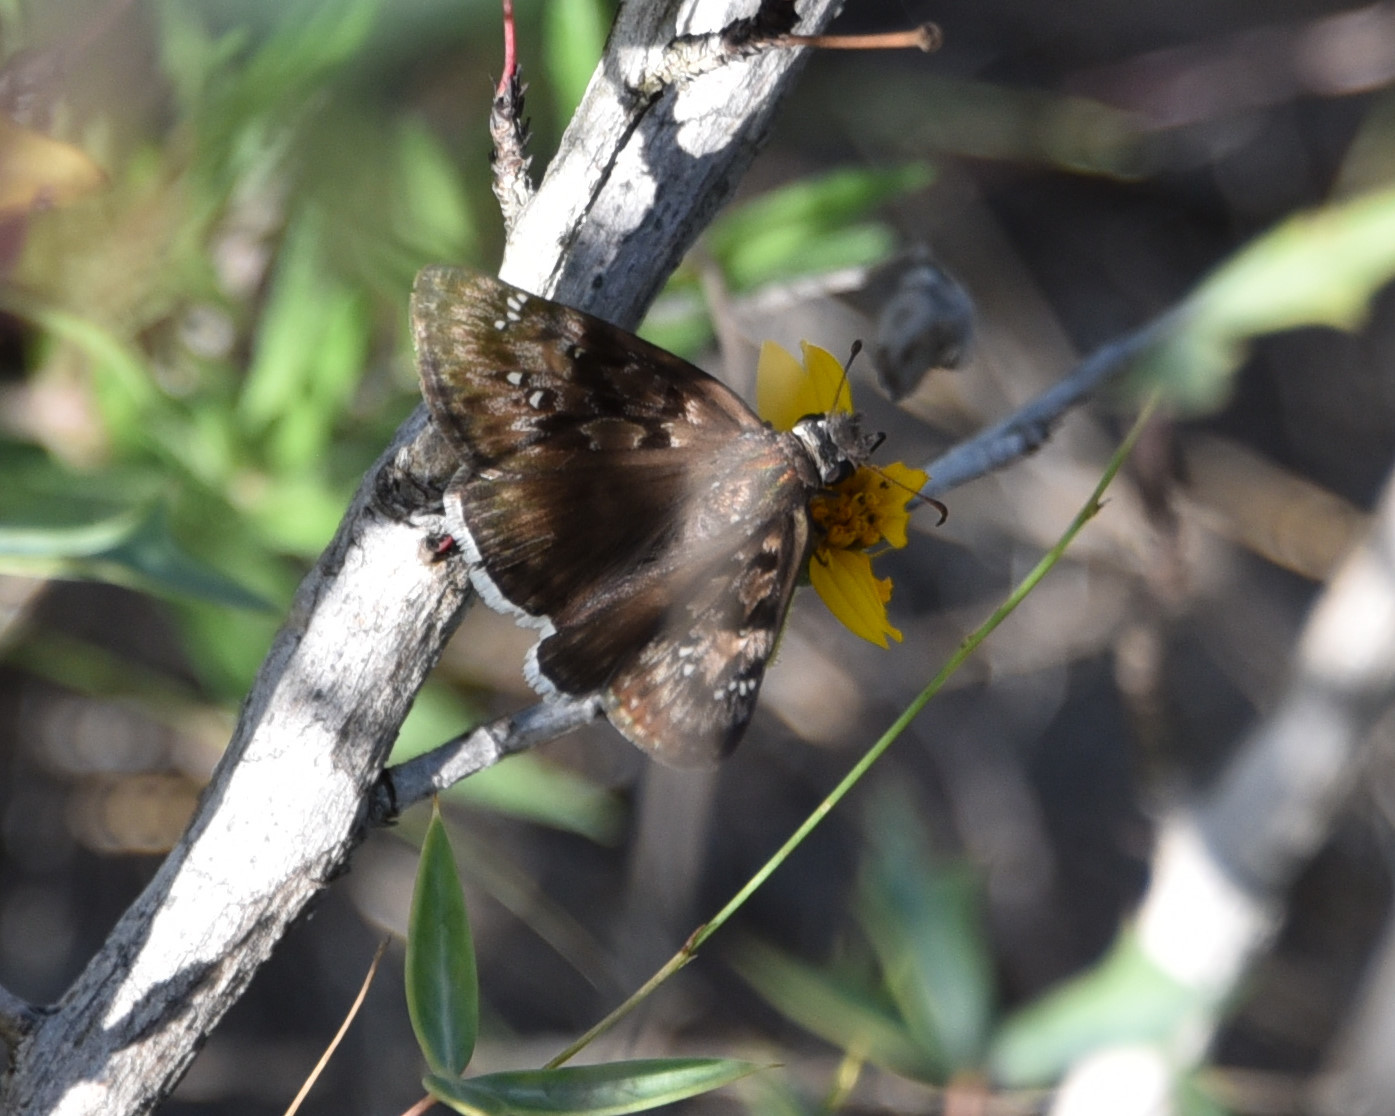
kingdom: Animalia
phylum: Arthropoda
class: Insecta
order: Lepidoptera
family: Hesperiidae
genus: Erynnis
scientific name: Erynnis tristis
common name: Mournful duskywing
